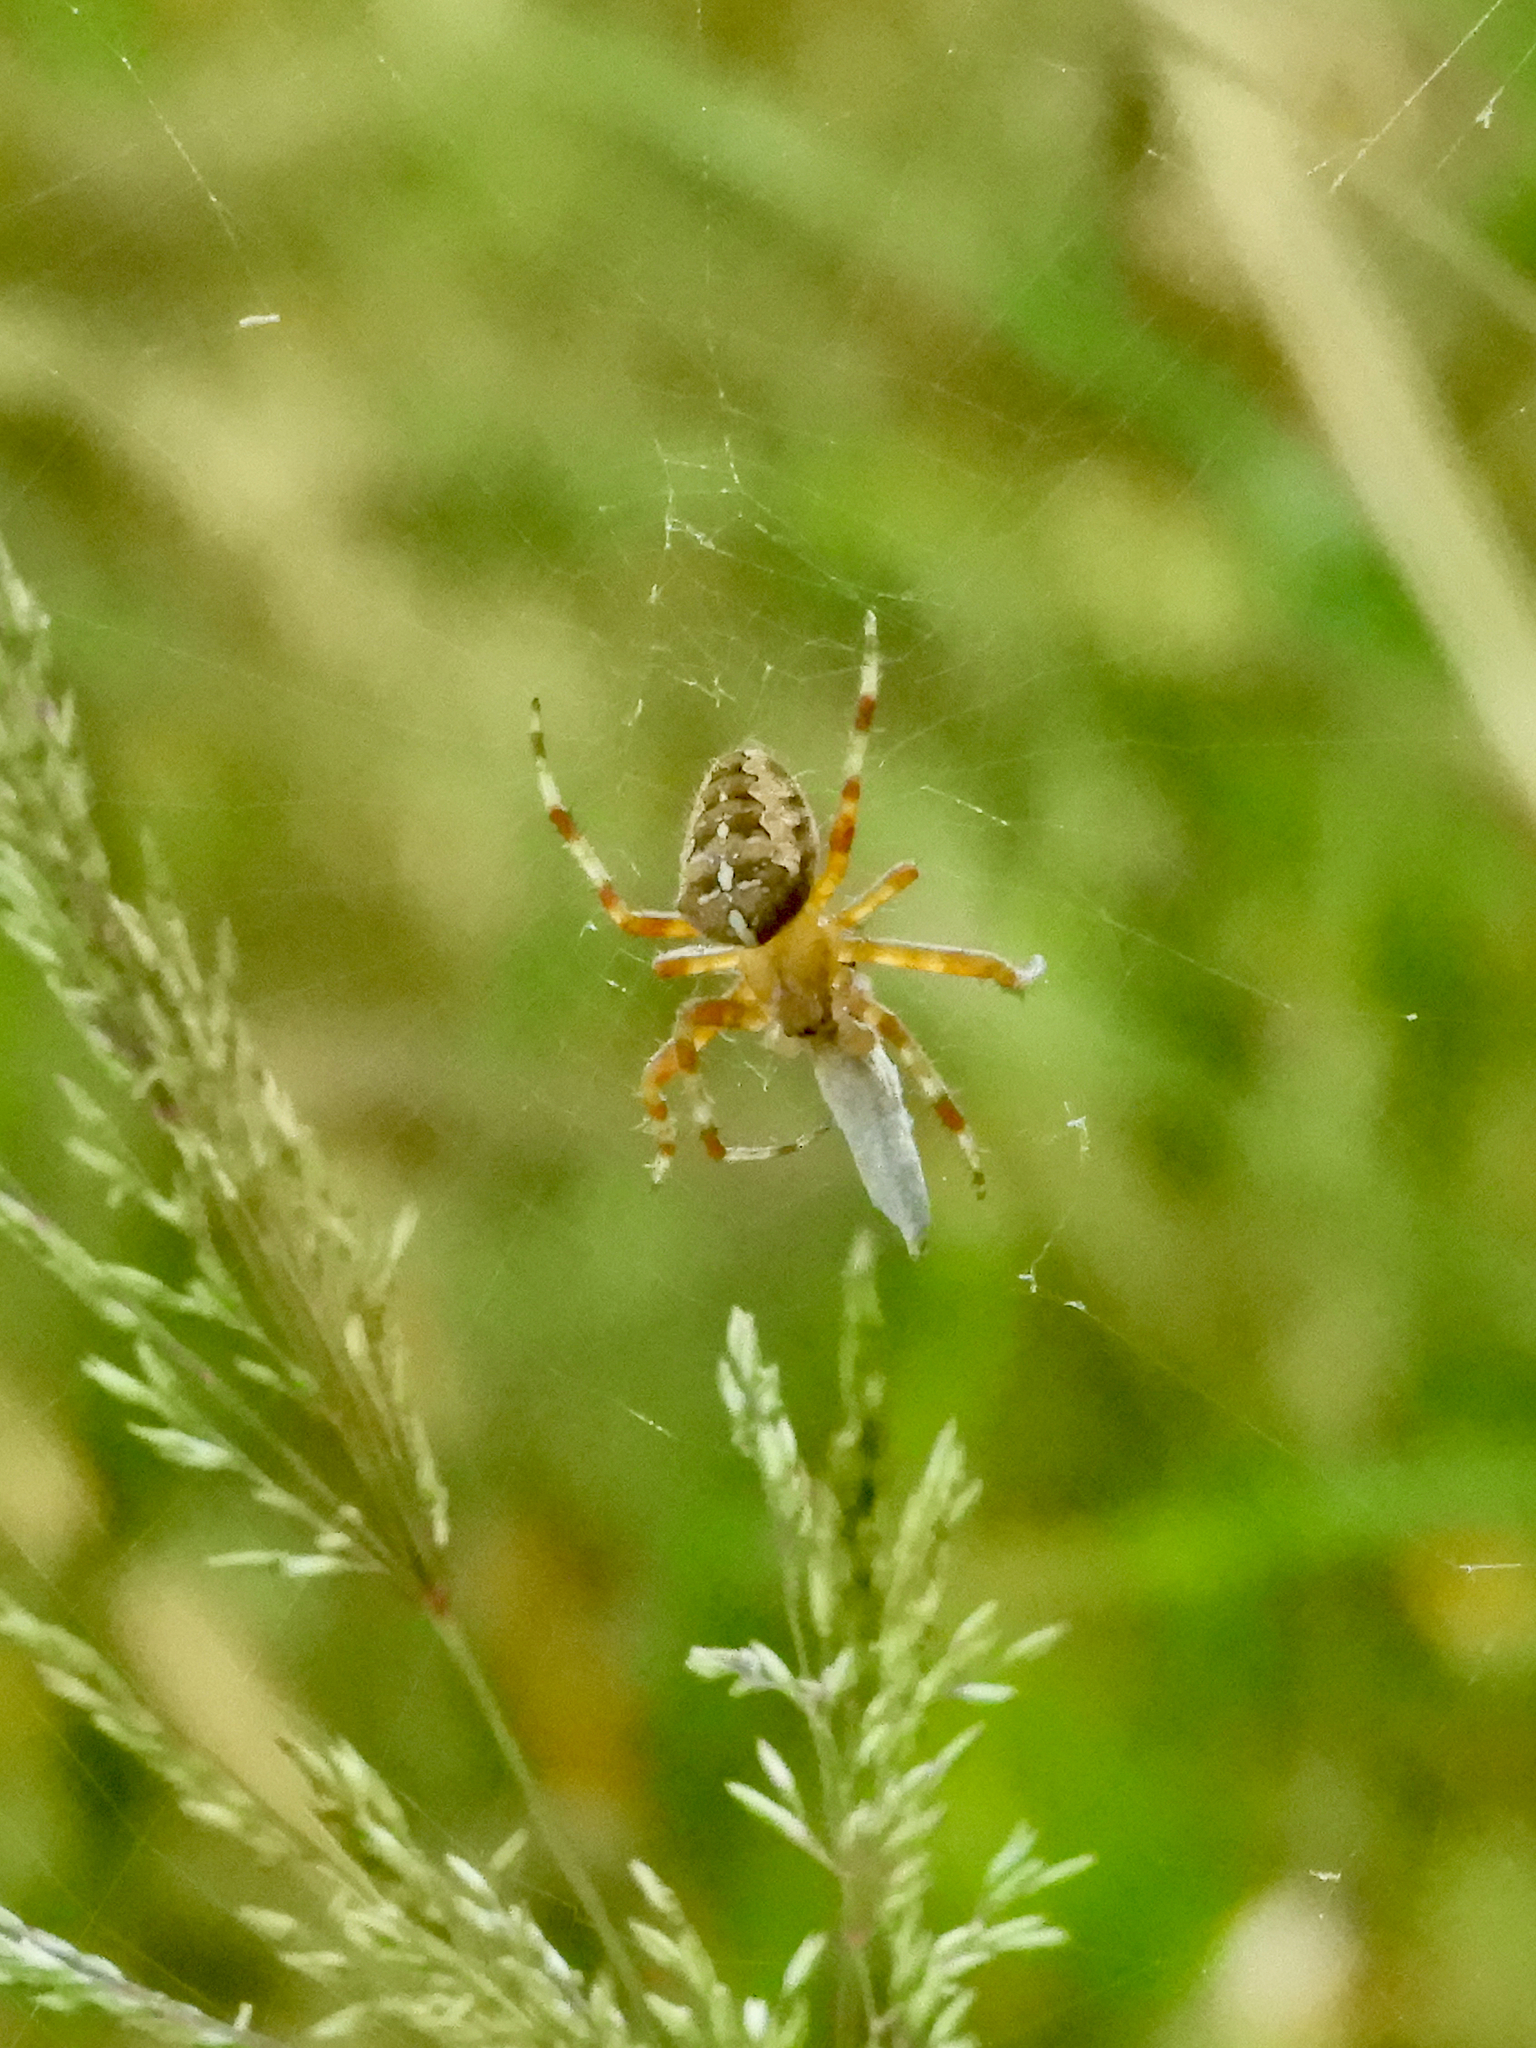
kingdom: Animalia
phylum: Arthropoda
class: Arachnida
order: Araneae
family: Araneidae
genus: Araneus
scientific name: Araneus diadematus
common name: Cross orbweaver
